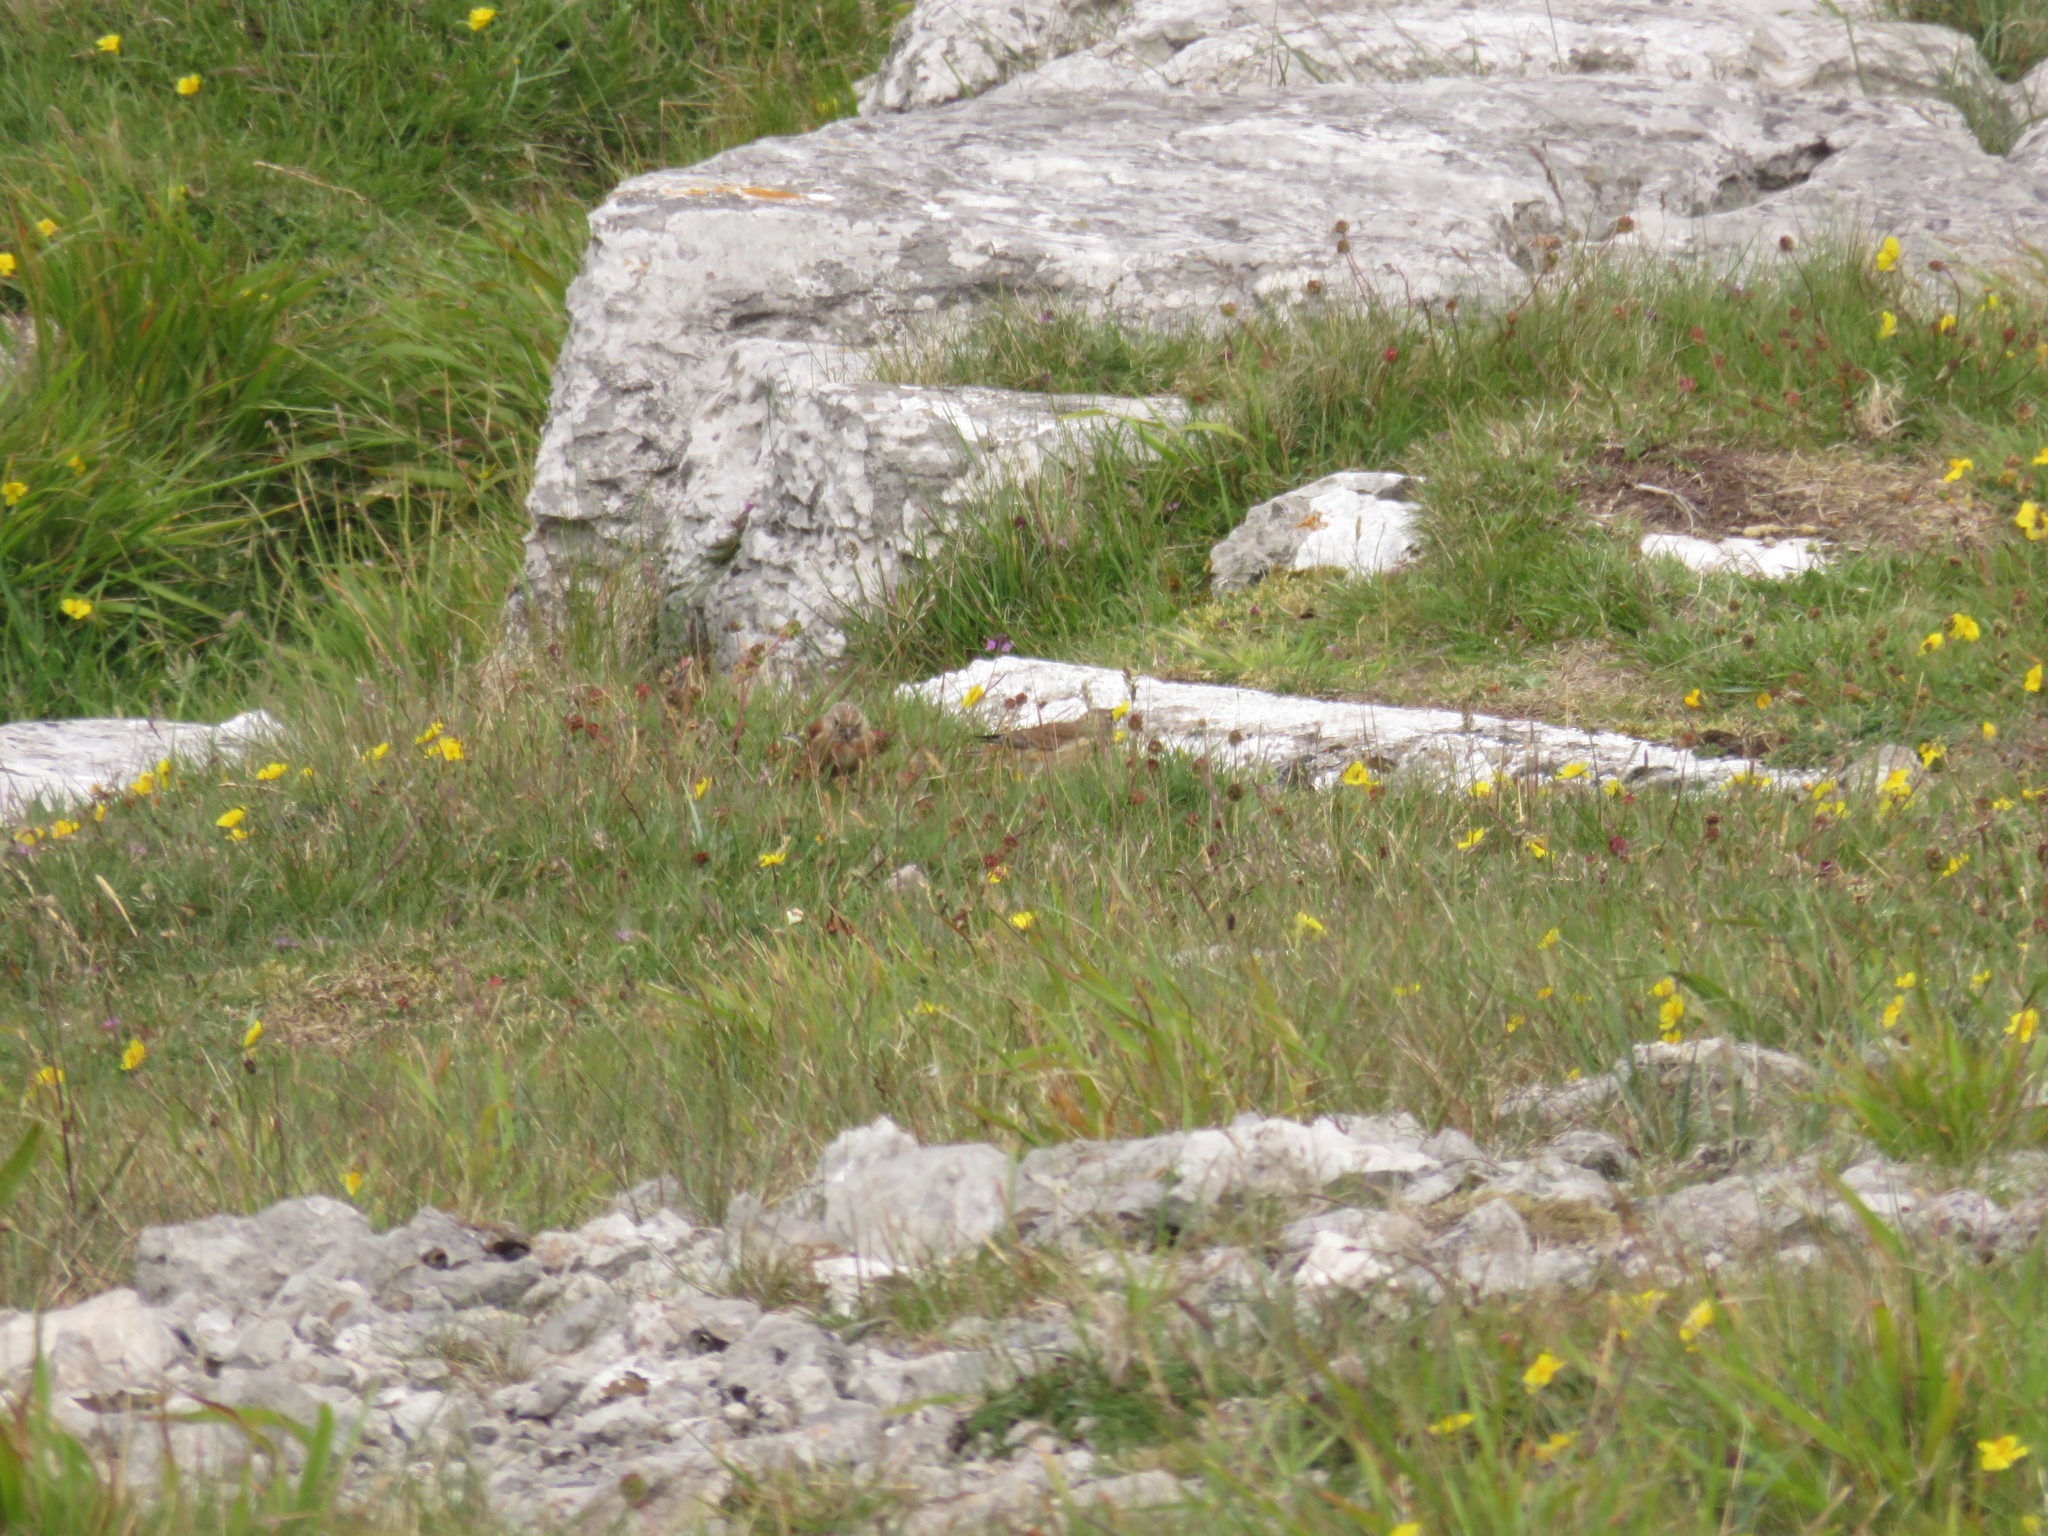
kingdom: Animalia
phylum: Chordata
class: Aves
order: Passeriformes
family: Fringillidae
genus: Linaria
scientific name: Linaria cannabina
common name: Common linnet
